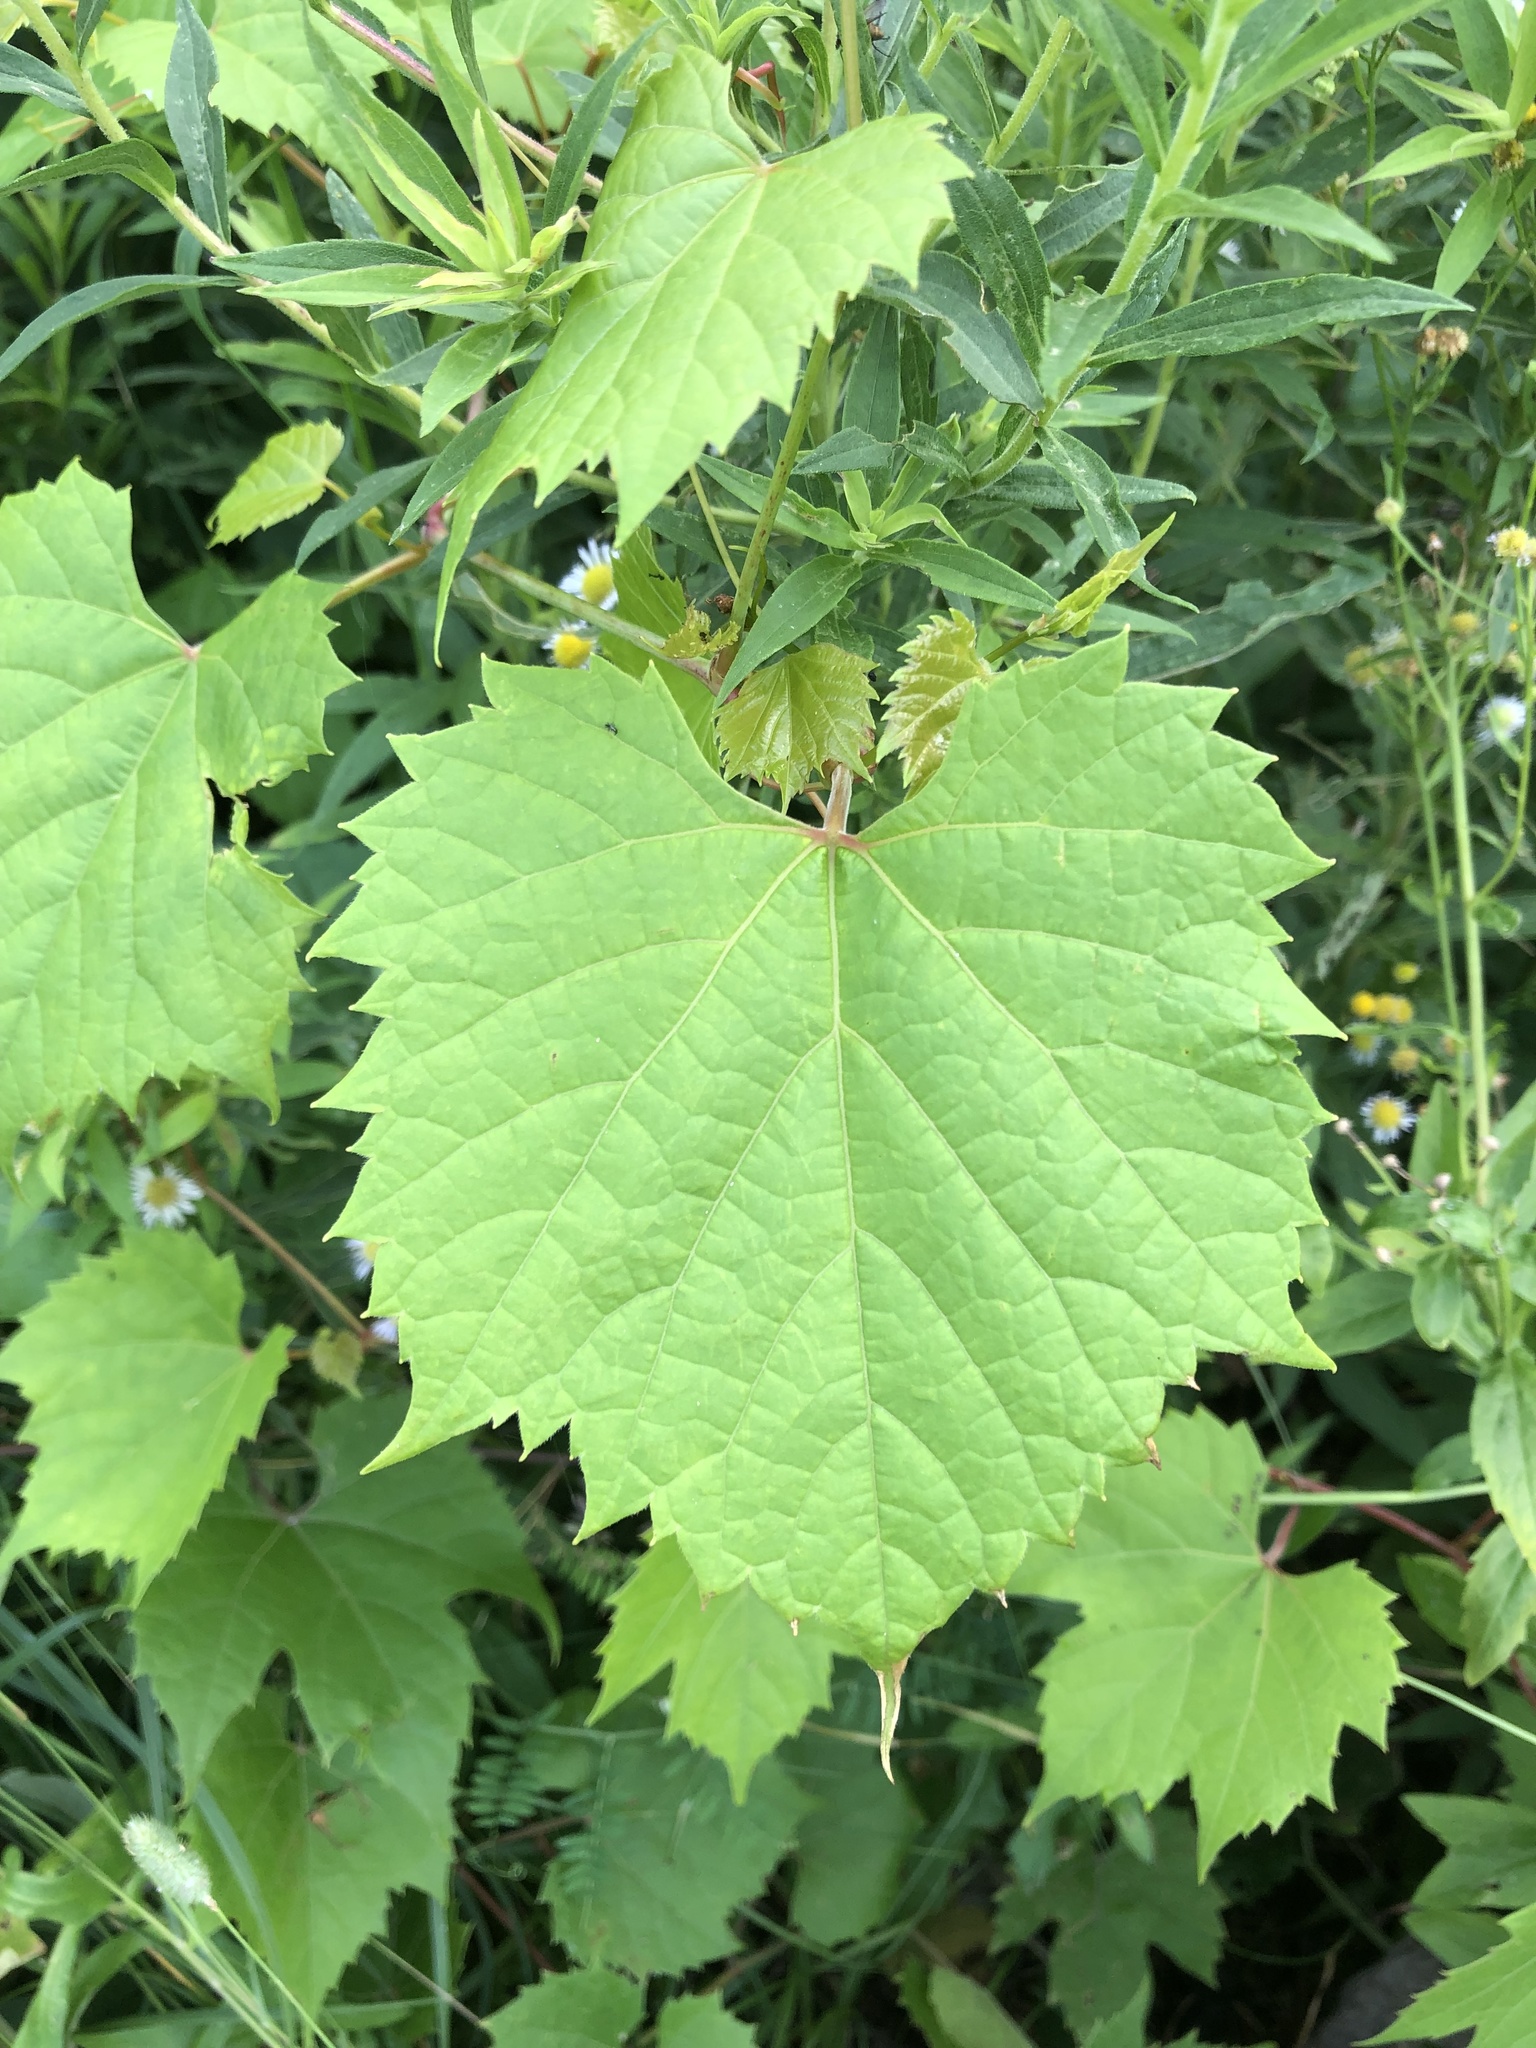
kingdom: Plantae
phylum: Tracheophyta
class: Magnoliopsida
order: Vitales
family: Vitaceae
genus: Vitis
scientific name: Vitis riparia
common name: Frost grape
